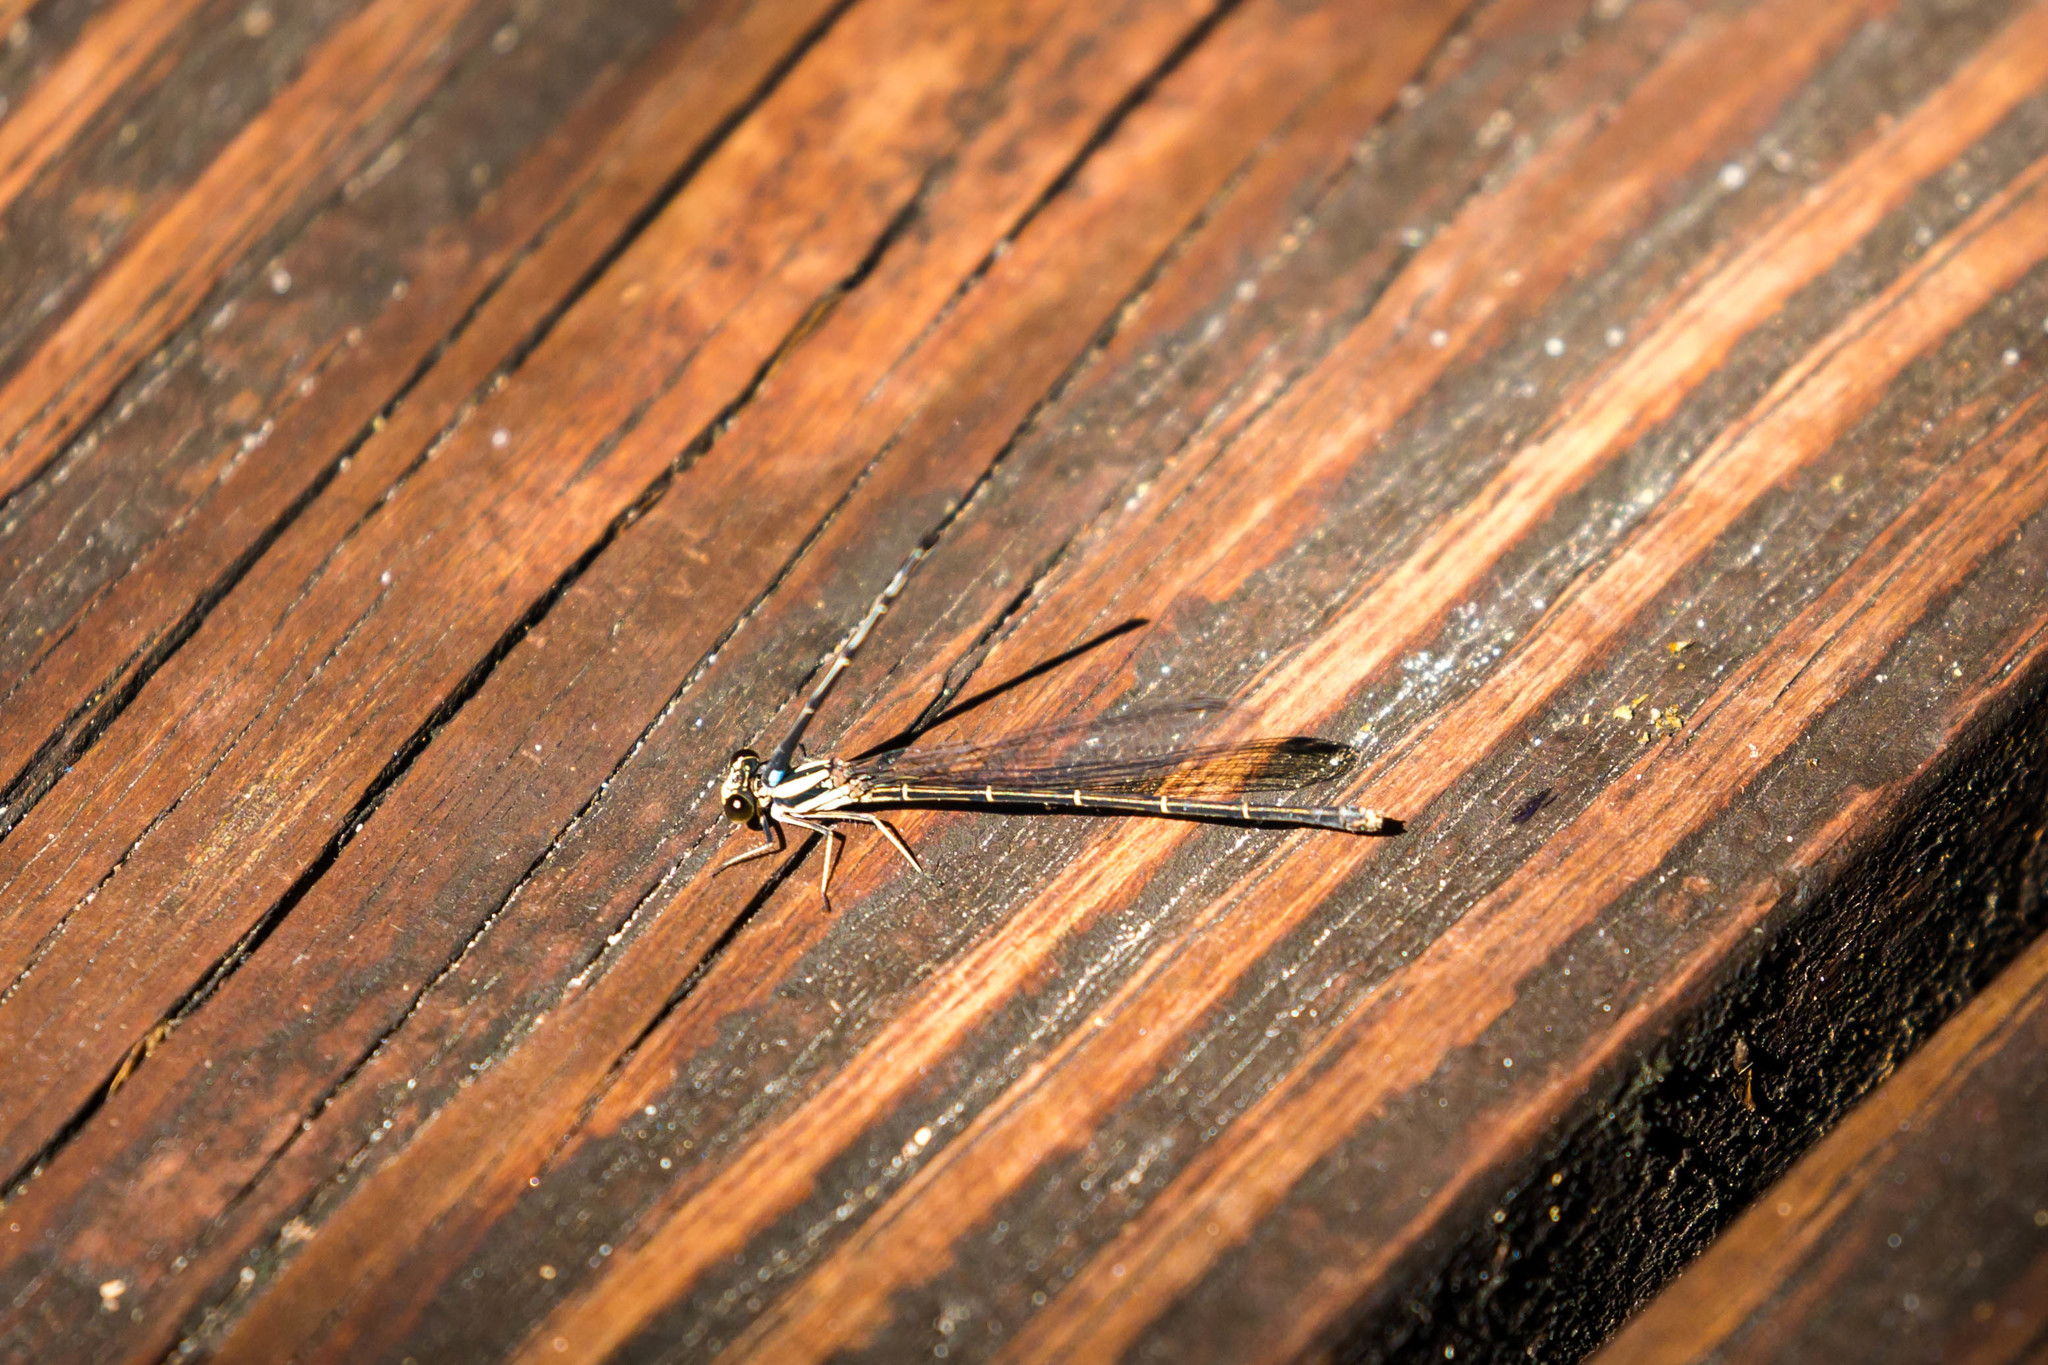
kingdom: Animalia
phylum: Arthropoda
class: Insecta
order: Odonata
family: Coenagrionidae
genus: Argia
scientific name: Argia tibialis
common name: Blue-tipped dancer
